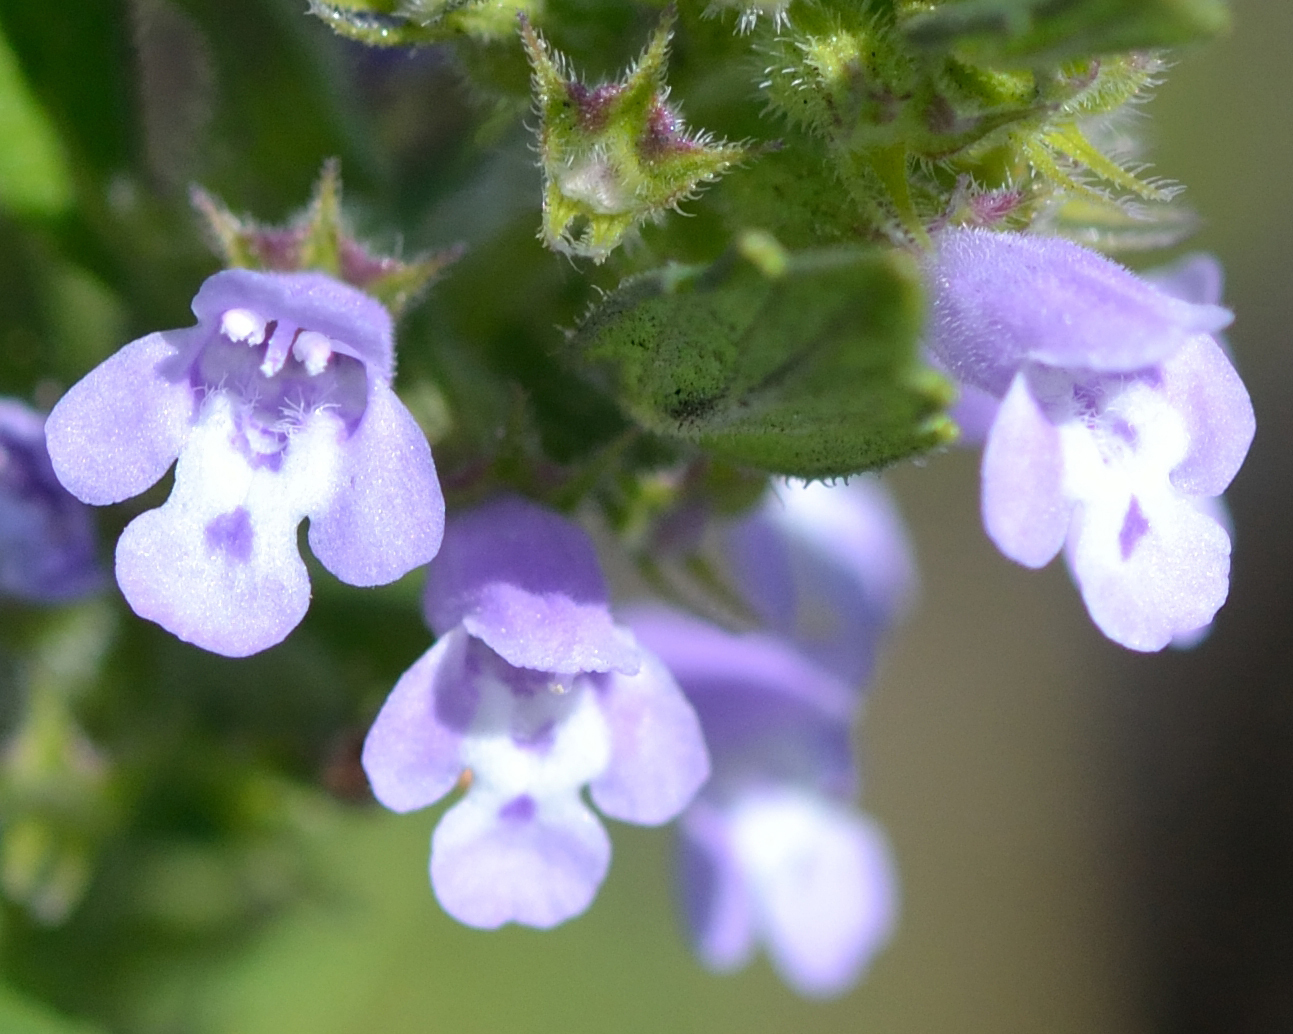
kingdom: Plantae
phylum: Tracheophyta
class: Magnoliopsida
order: Lamiales
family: Lamiaceae
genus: Clinopodium
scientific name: Clinopodium acinos
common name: Basil thyme
